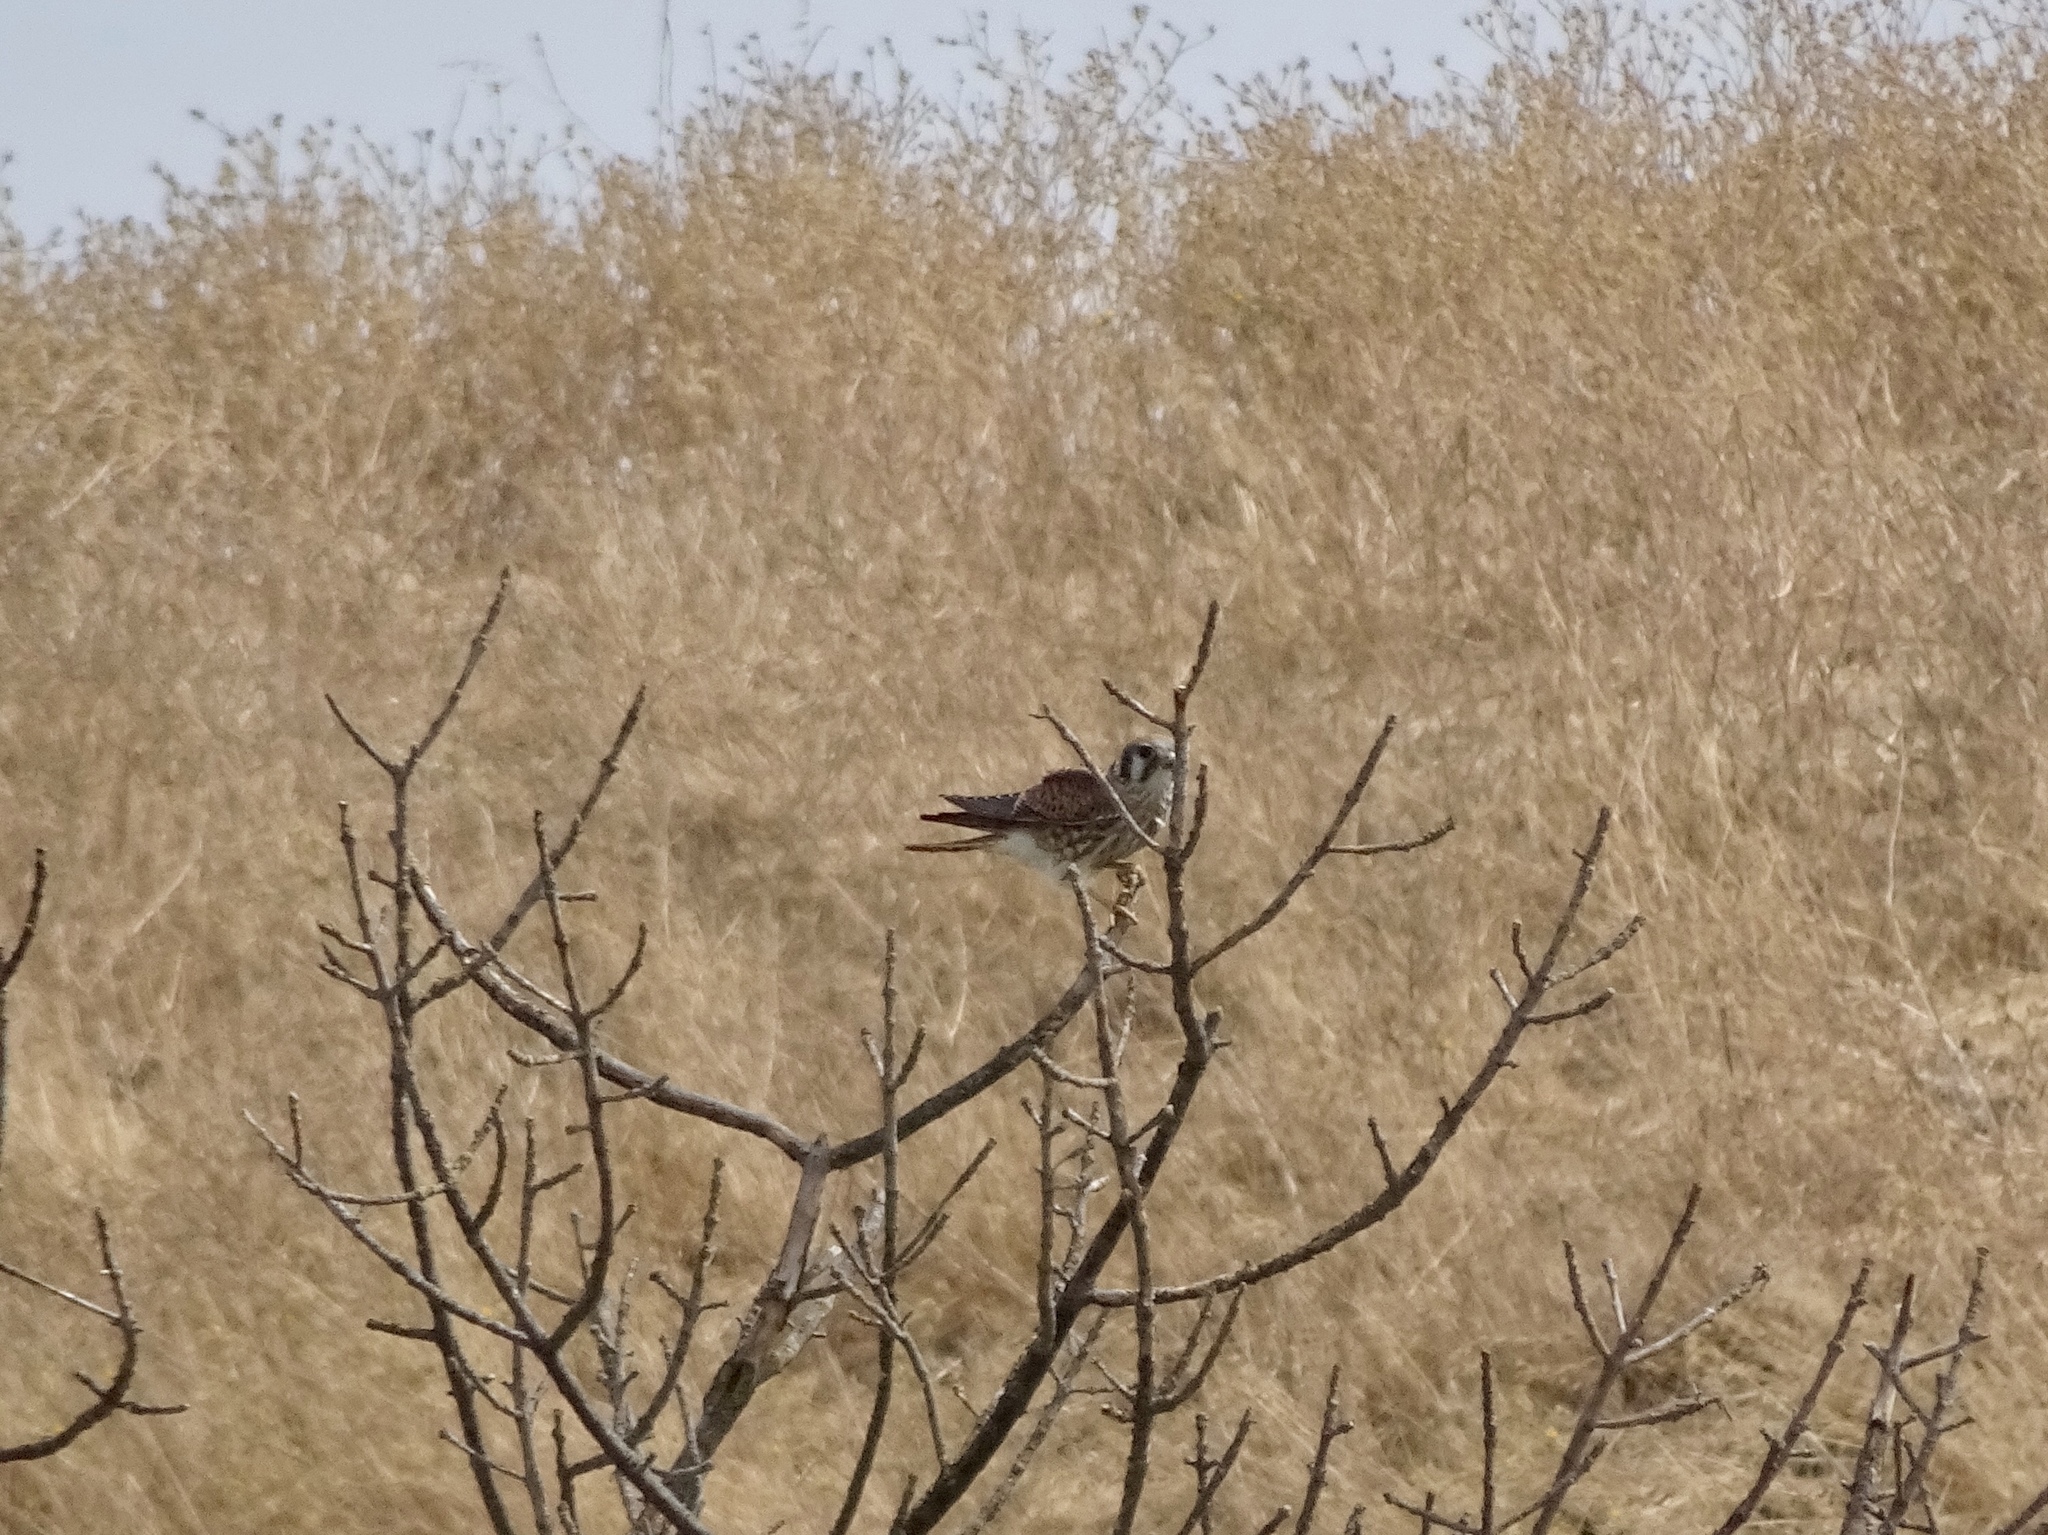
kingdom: Animalia
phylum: Chordata
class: Aves
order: Falconiformes
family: Falconidae
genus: Falco
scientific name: Falco sparverius
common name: American kestrel
